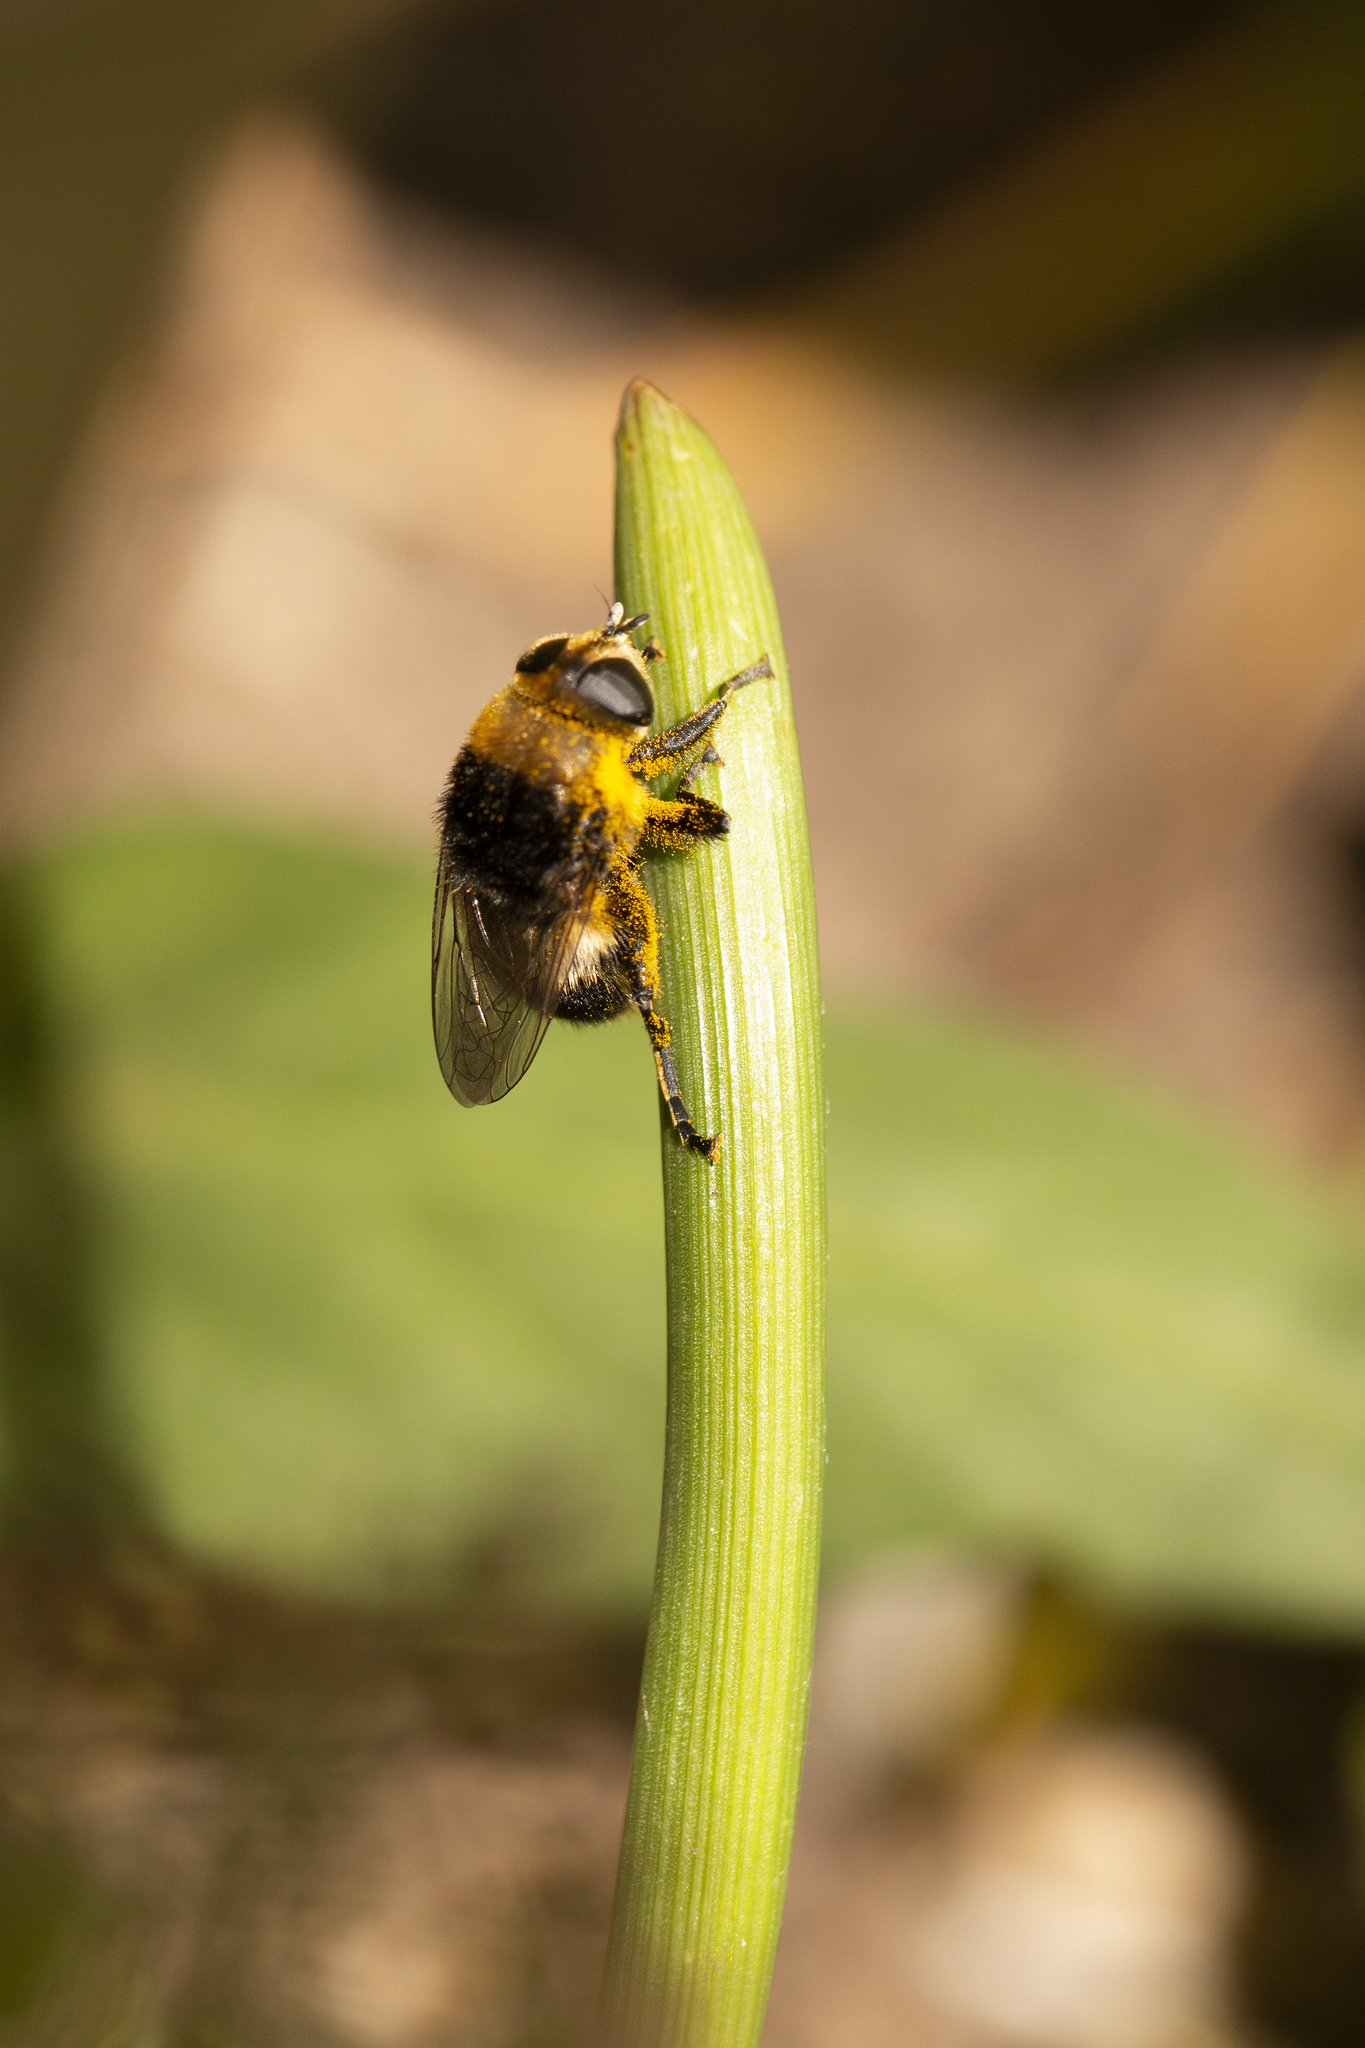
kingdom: Animalia
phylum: Arthropoda
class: Insecta
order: Diptera
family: Syrphidae
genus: Merodon
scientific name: Merodon equestris
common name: Greater bulb-fly
